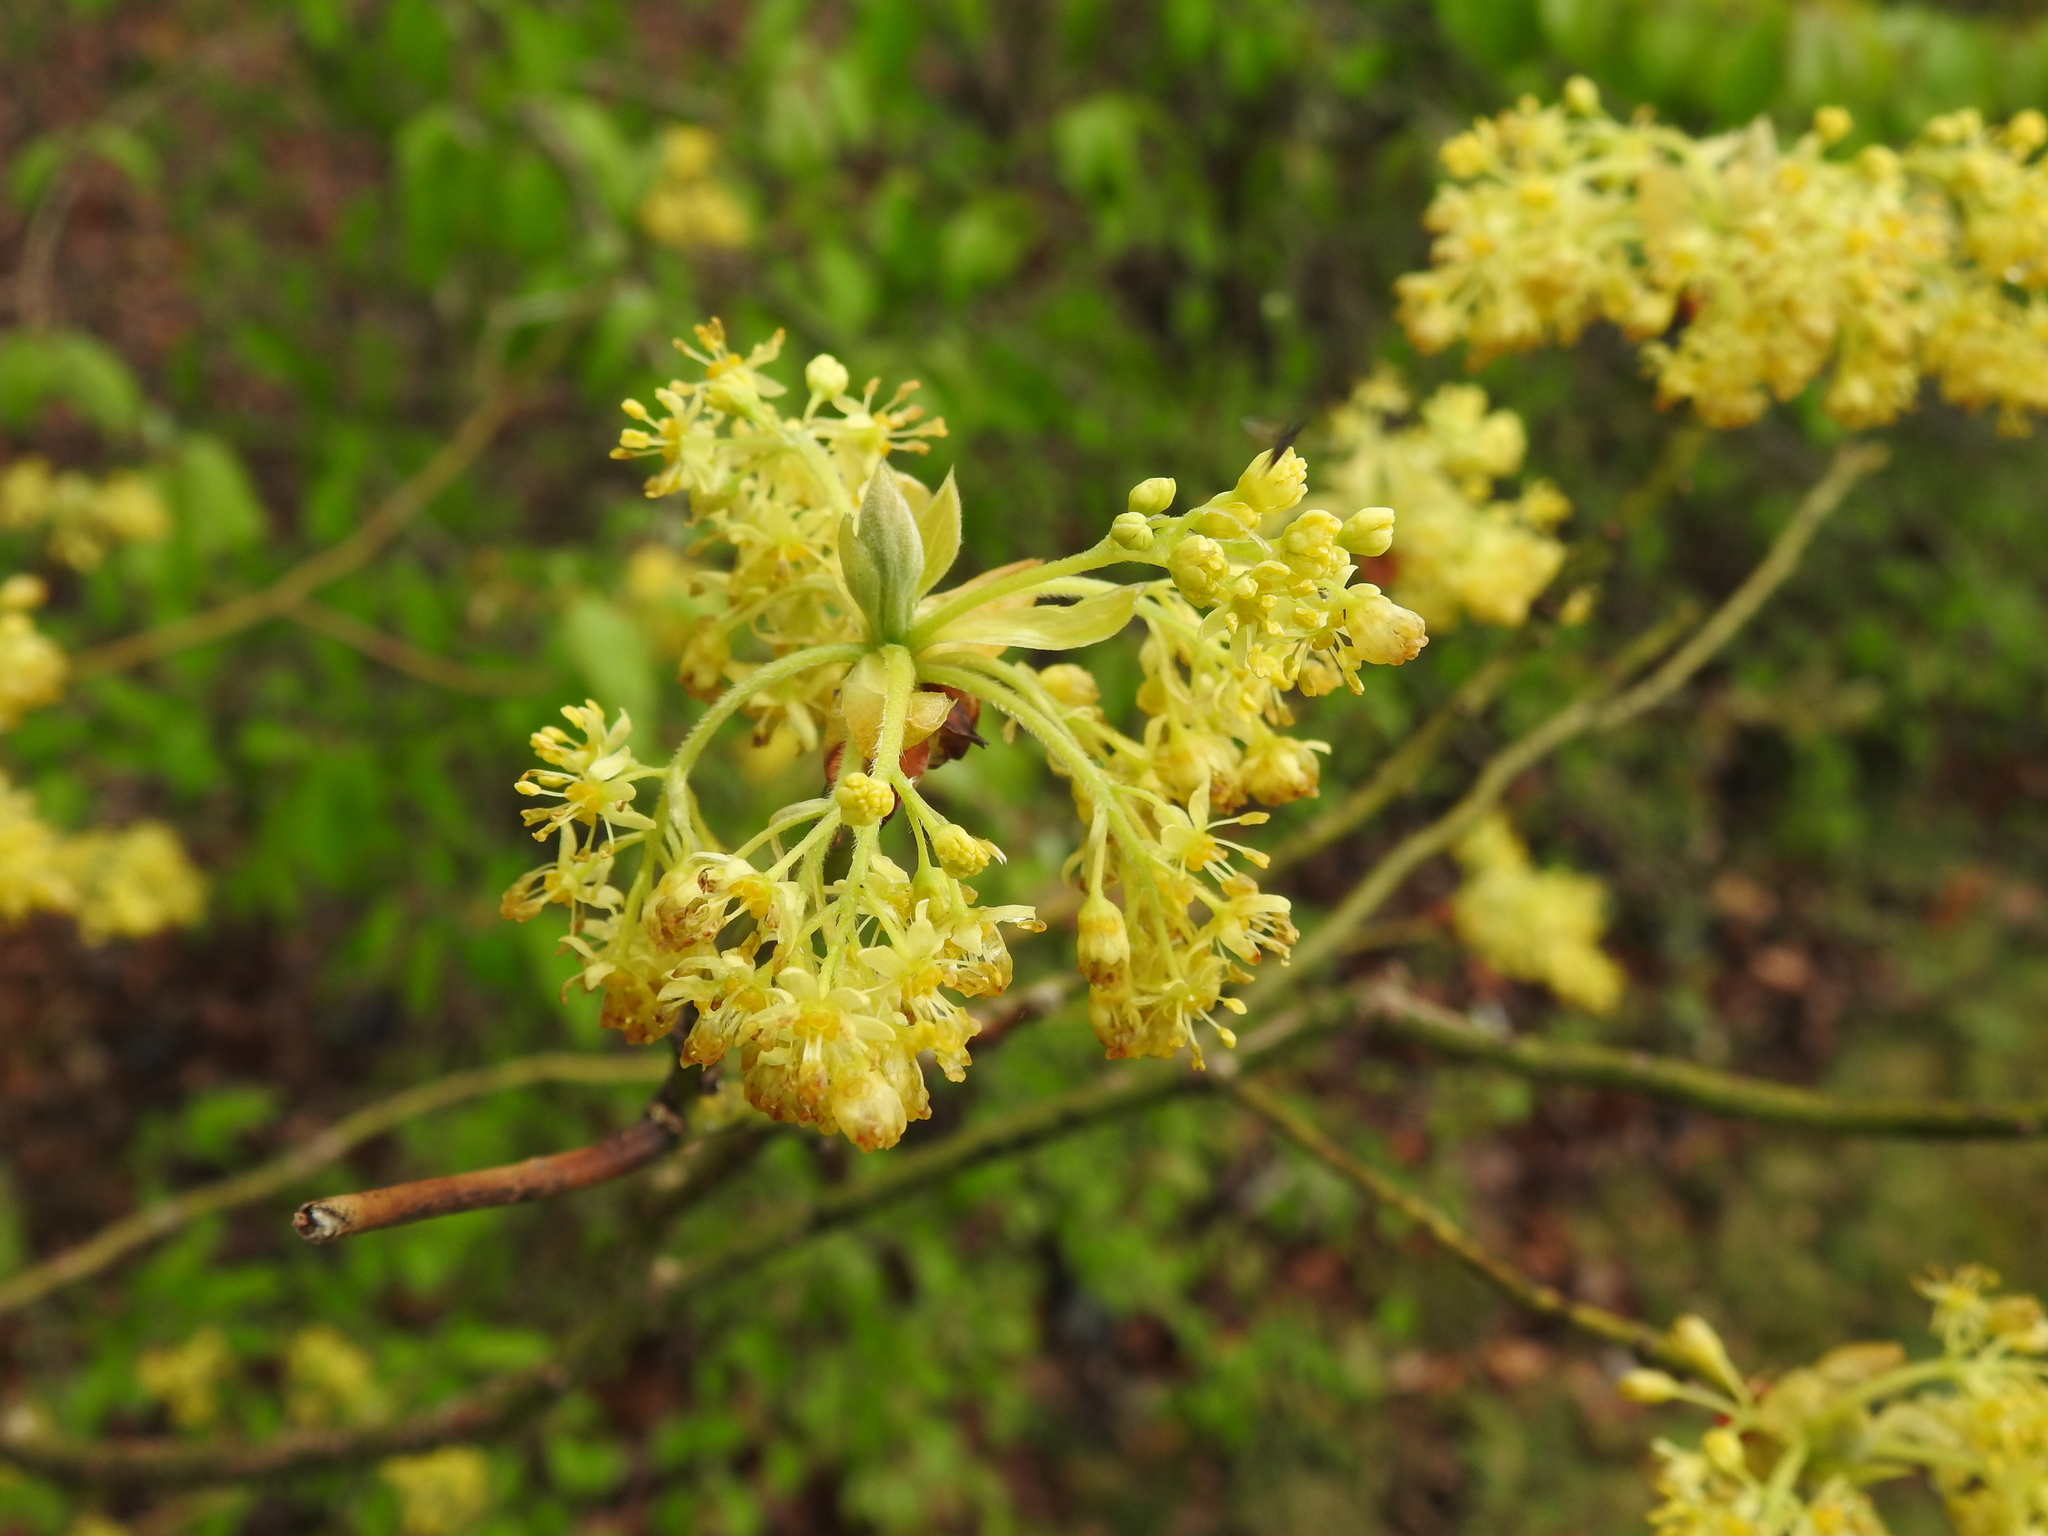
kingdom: Plantae
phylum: Tracheophyta
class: Magnoliopsida
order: Laurales
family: Lauraceae
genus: Sassafras
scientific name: Sassafras albidum
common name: Sassafras
